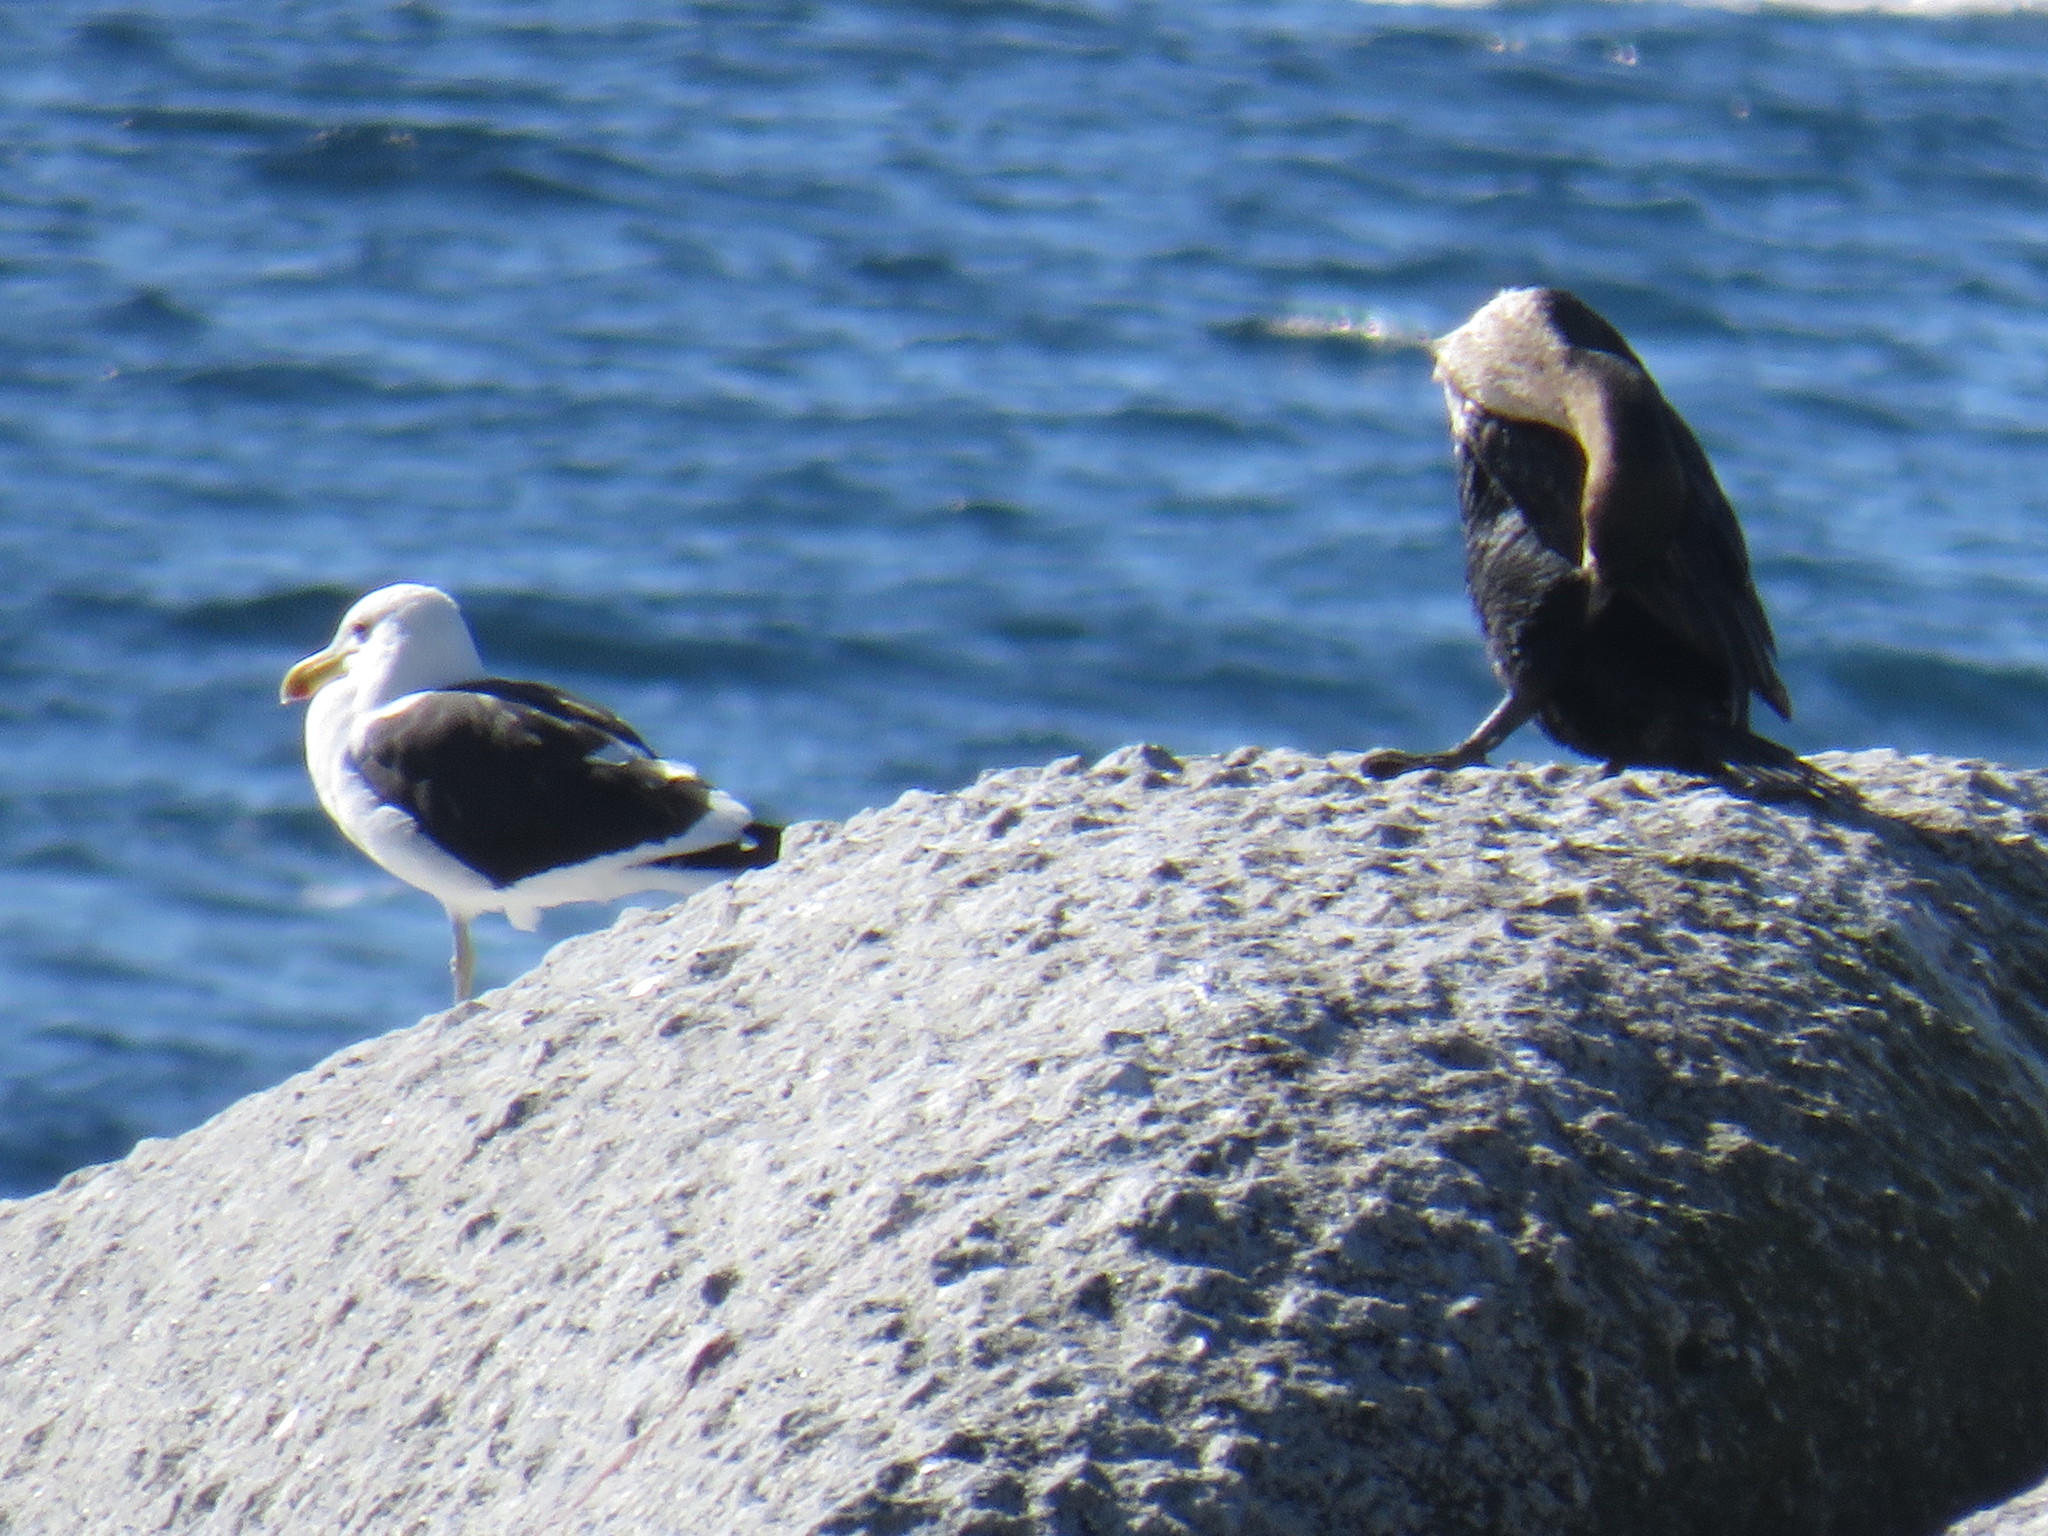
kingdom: Animalia
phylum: Chordata
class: Aves
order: Charadriiformes
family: Laridae
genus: Larus
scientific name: Larus dominicanus
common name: Kelp gull
